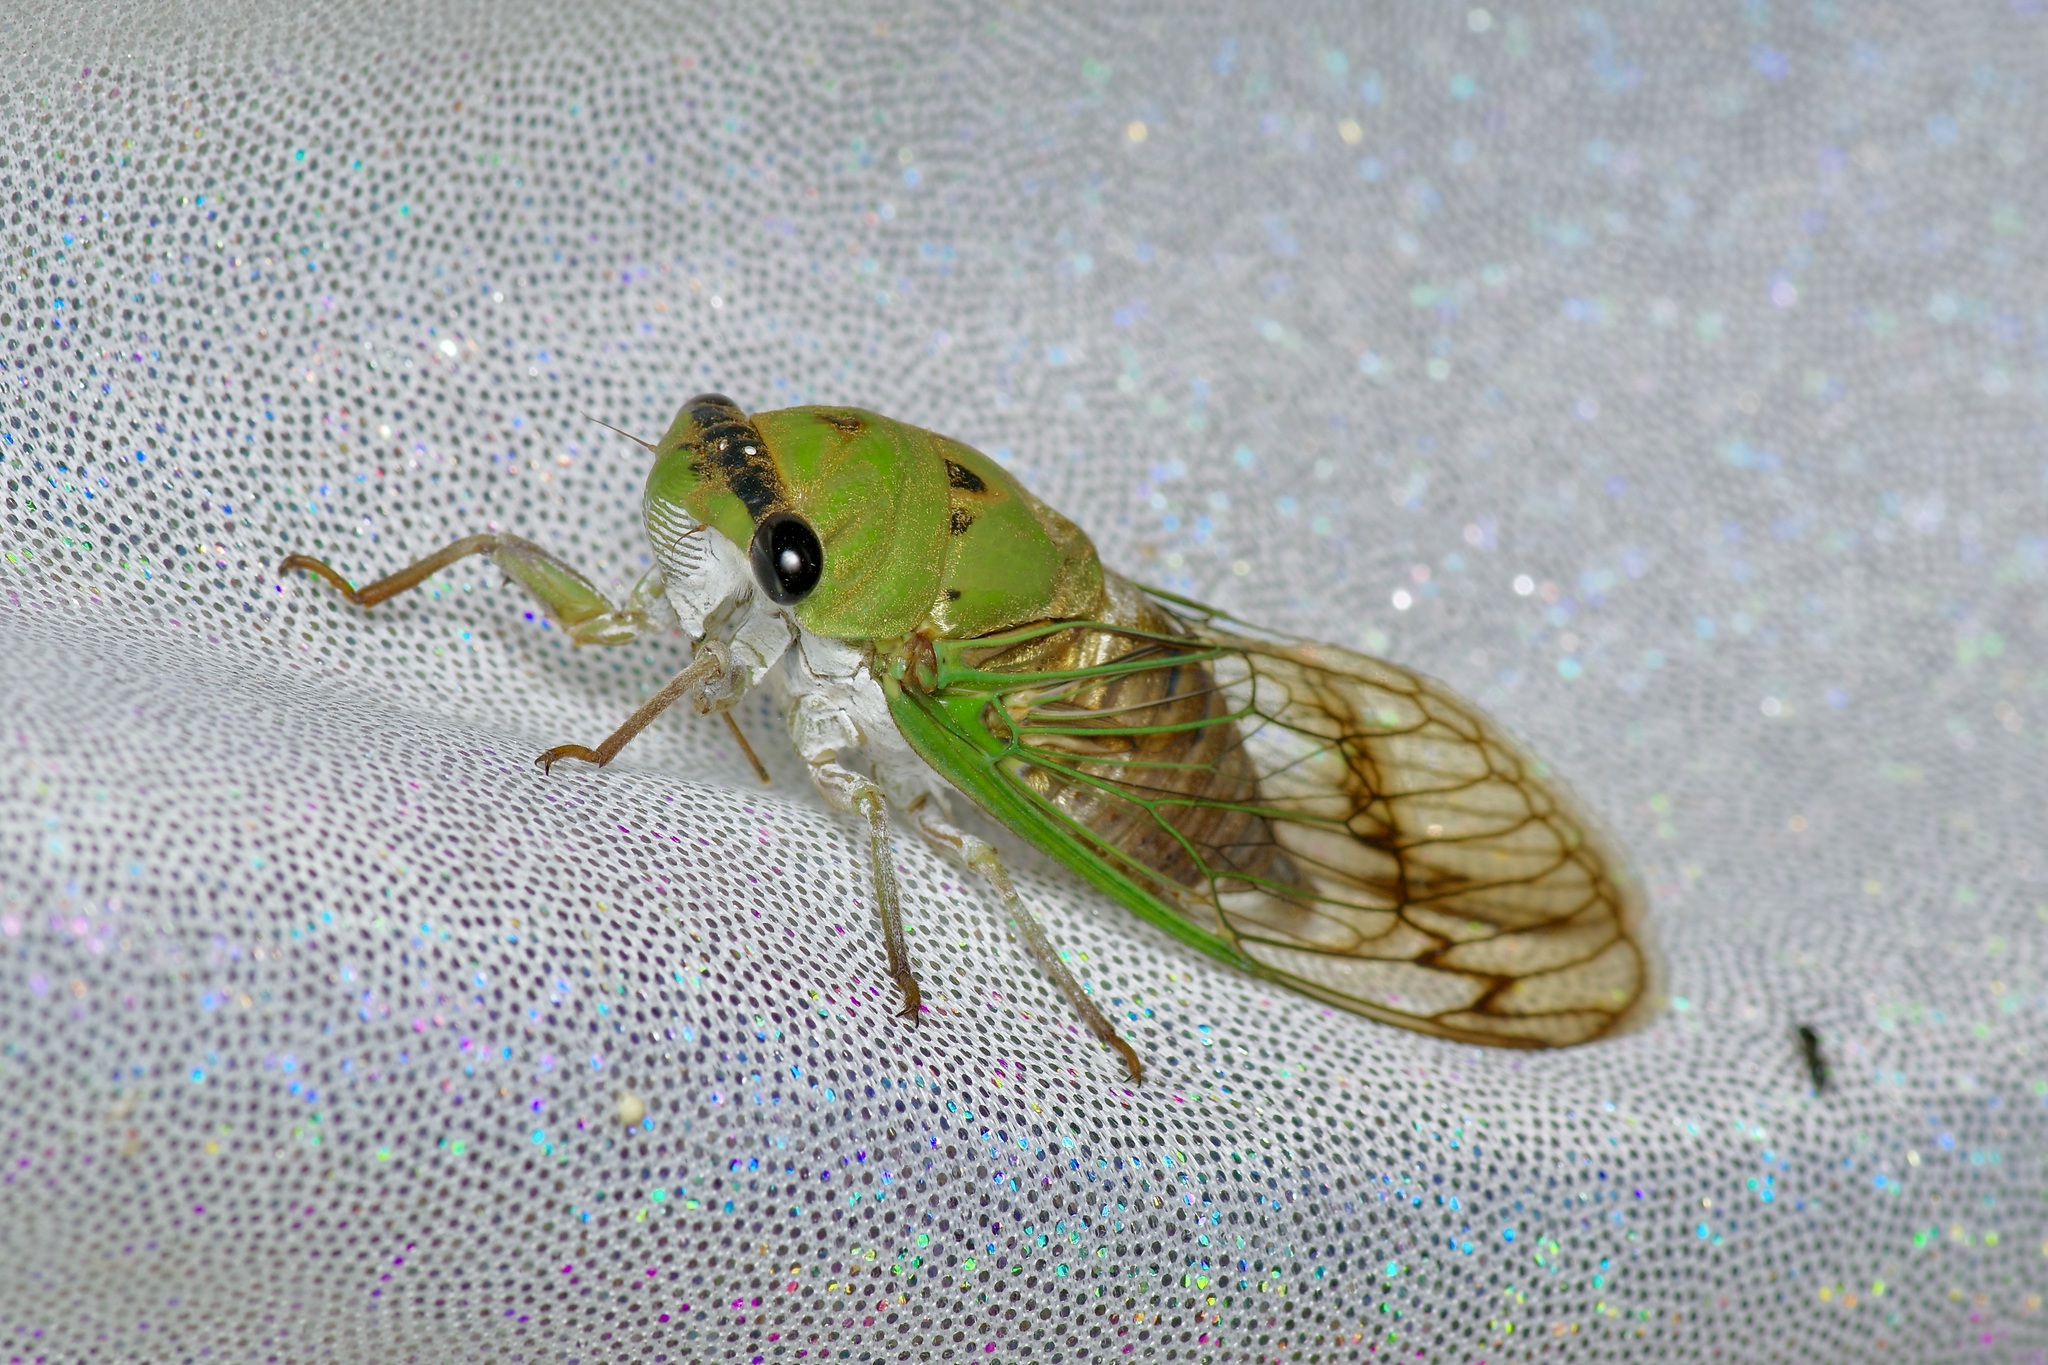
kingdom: Animalia
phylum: Arthropoda
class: Insecta
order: Hemiptera
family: Cicadidae
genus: Neotibicen
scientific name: Neotibicen superbus
